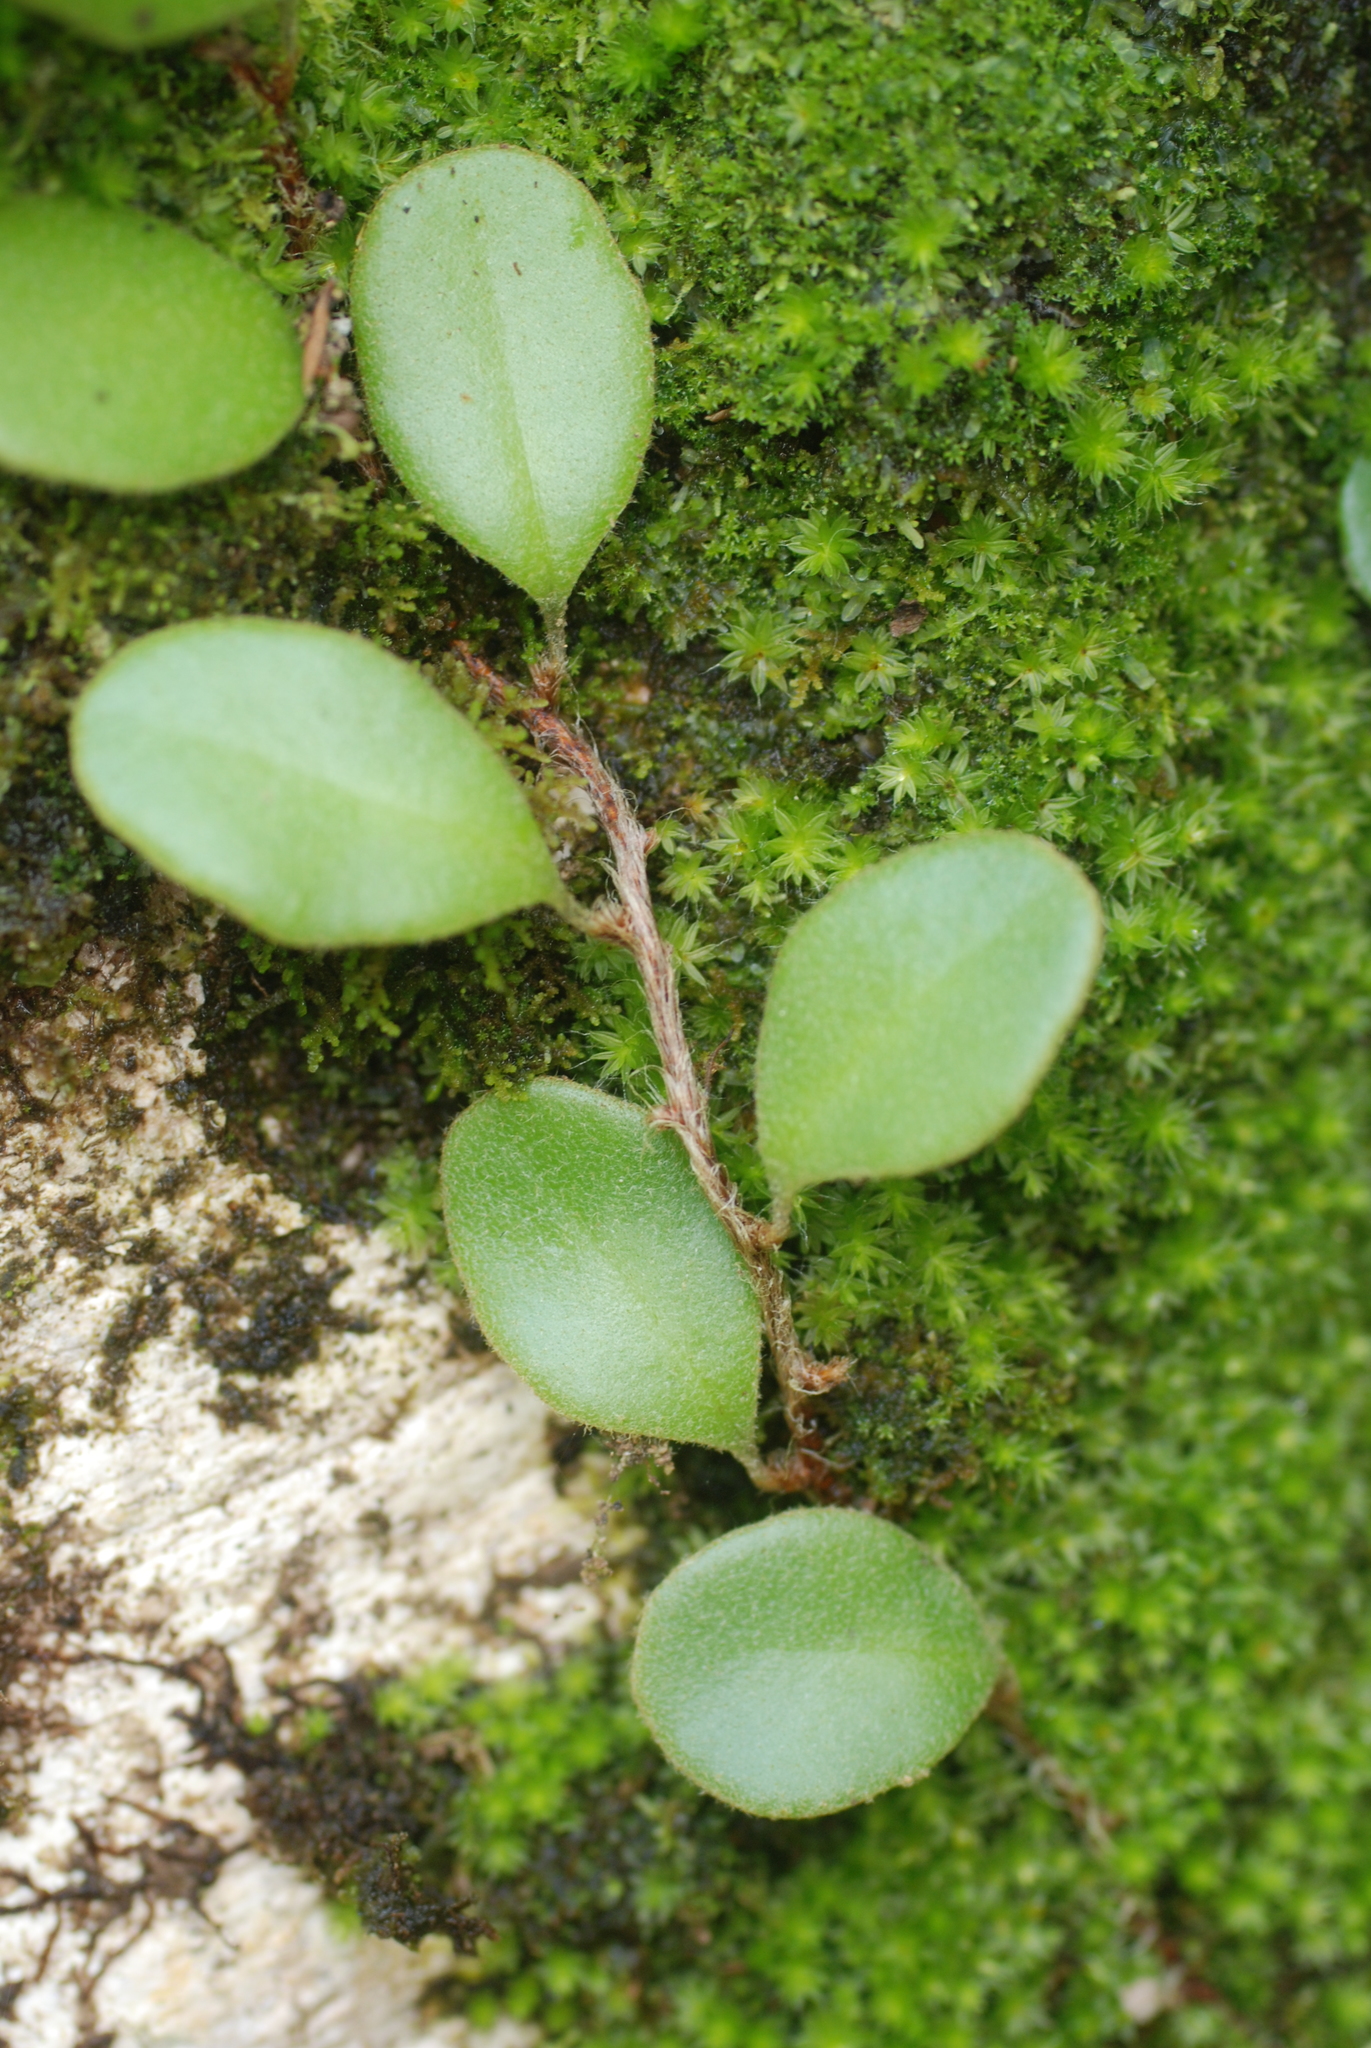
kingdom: Plantae
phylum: Tracheophyta
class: Polypodiopsida
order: Polypodiales
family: Polypodiaceae
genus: Pyrrosia
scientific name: Pyrrosia eleagnifolia
